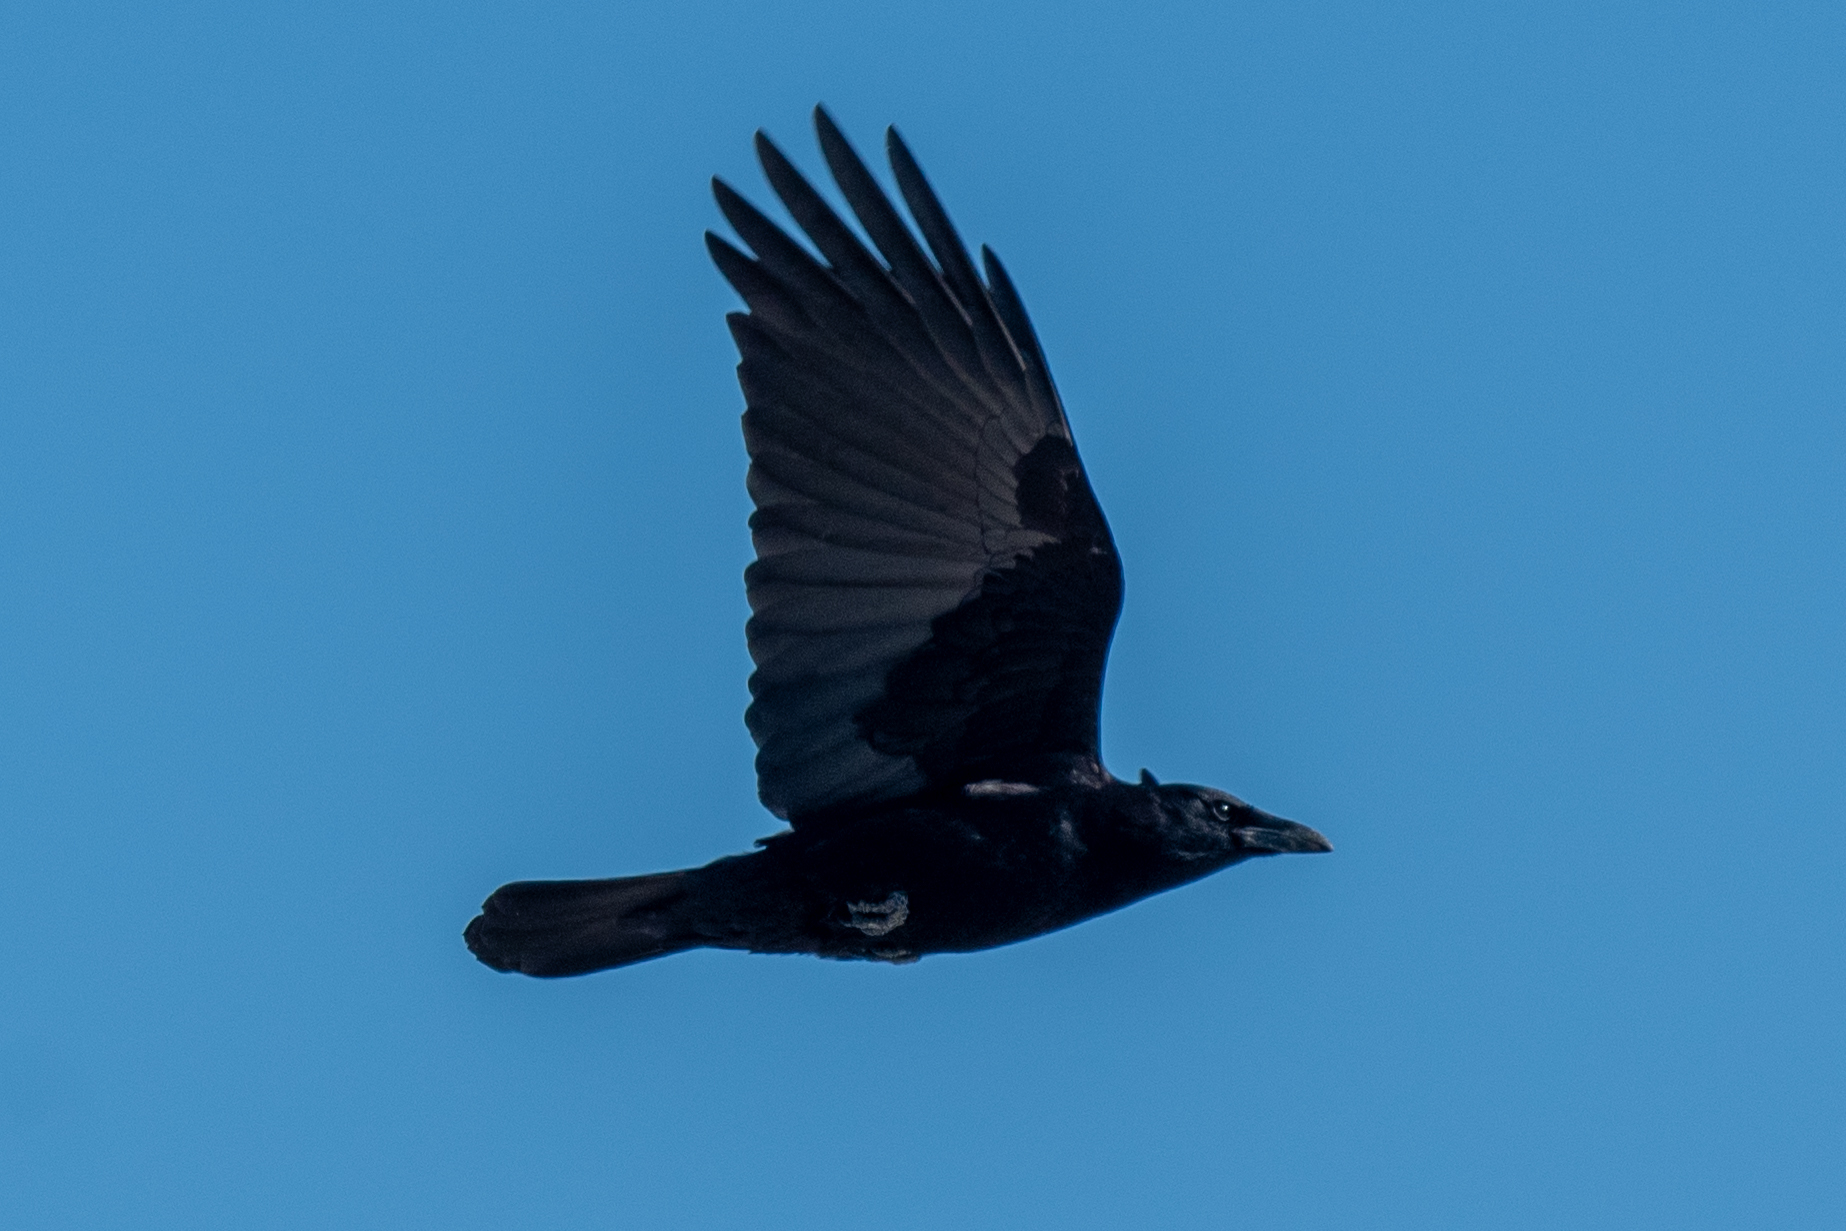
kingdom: Animalia
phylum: Chordata
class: Aves
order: Passeriformes
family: Corvidae
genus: Corvus
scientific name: Corvus brachyrhynchos
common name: American crow
